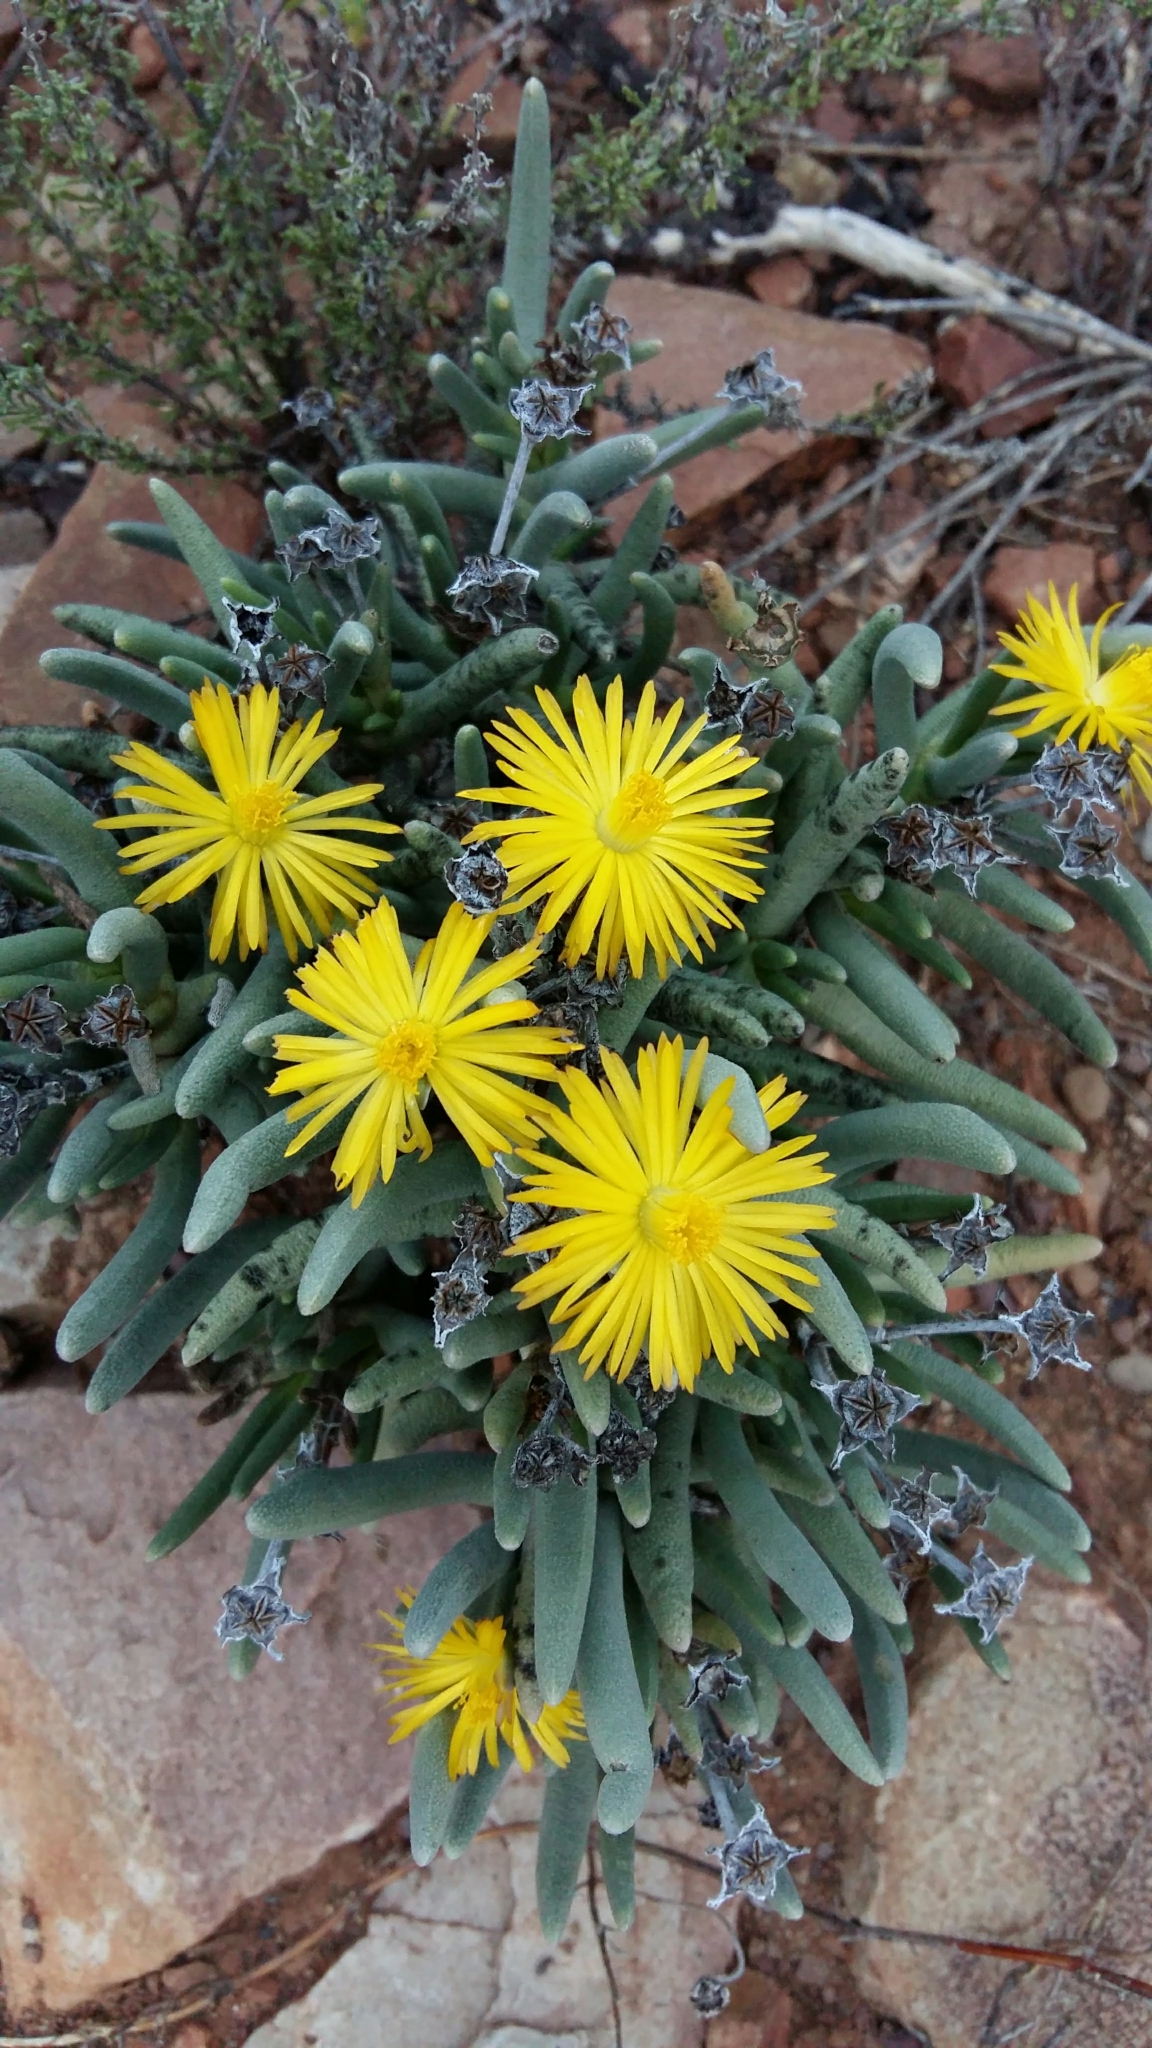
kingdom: Plantae
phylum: Tracheophyta
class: Magnoliopsida
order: Caryophyllales
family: Aizoaceae
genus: Dracophilus
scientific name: Dracophilus Hereroa acuminata
